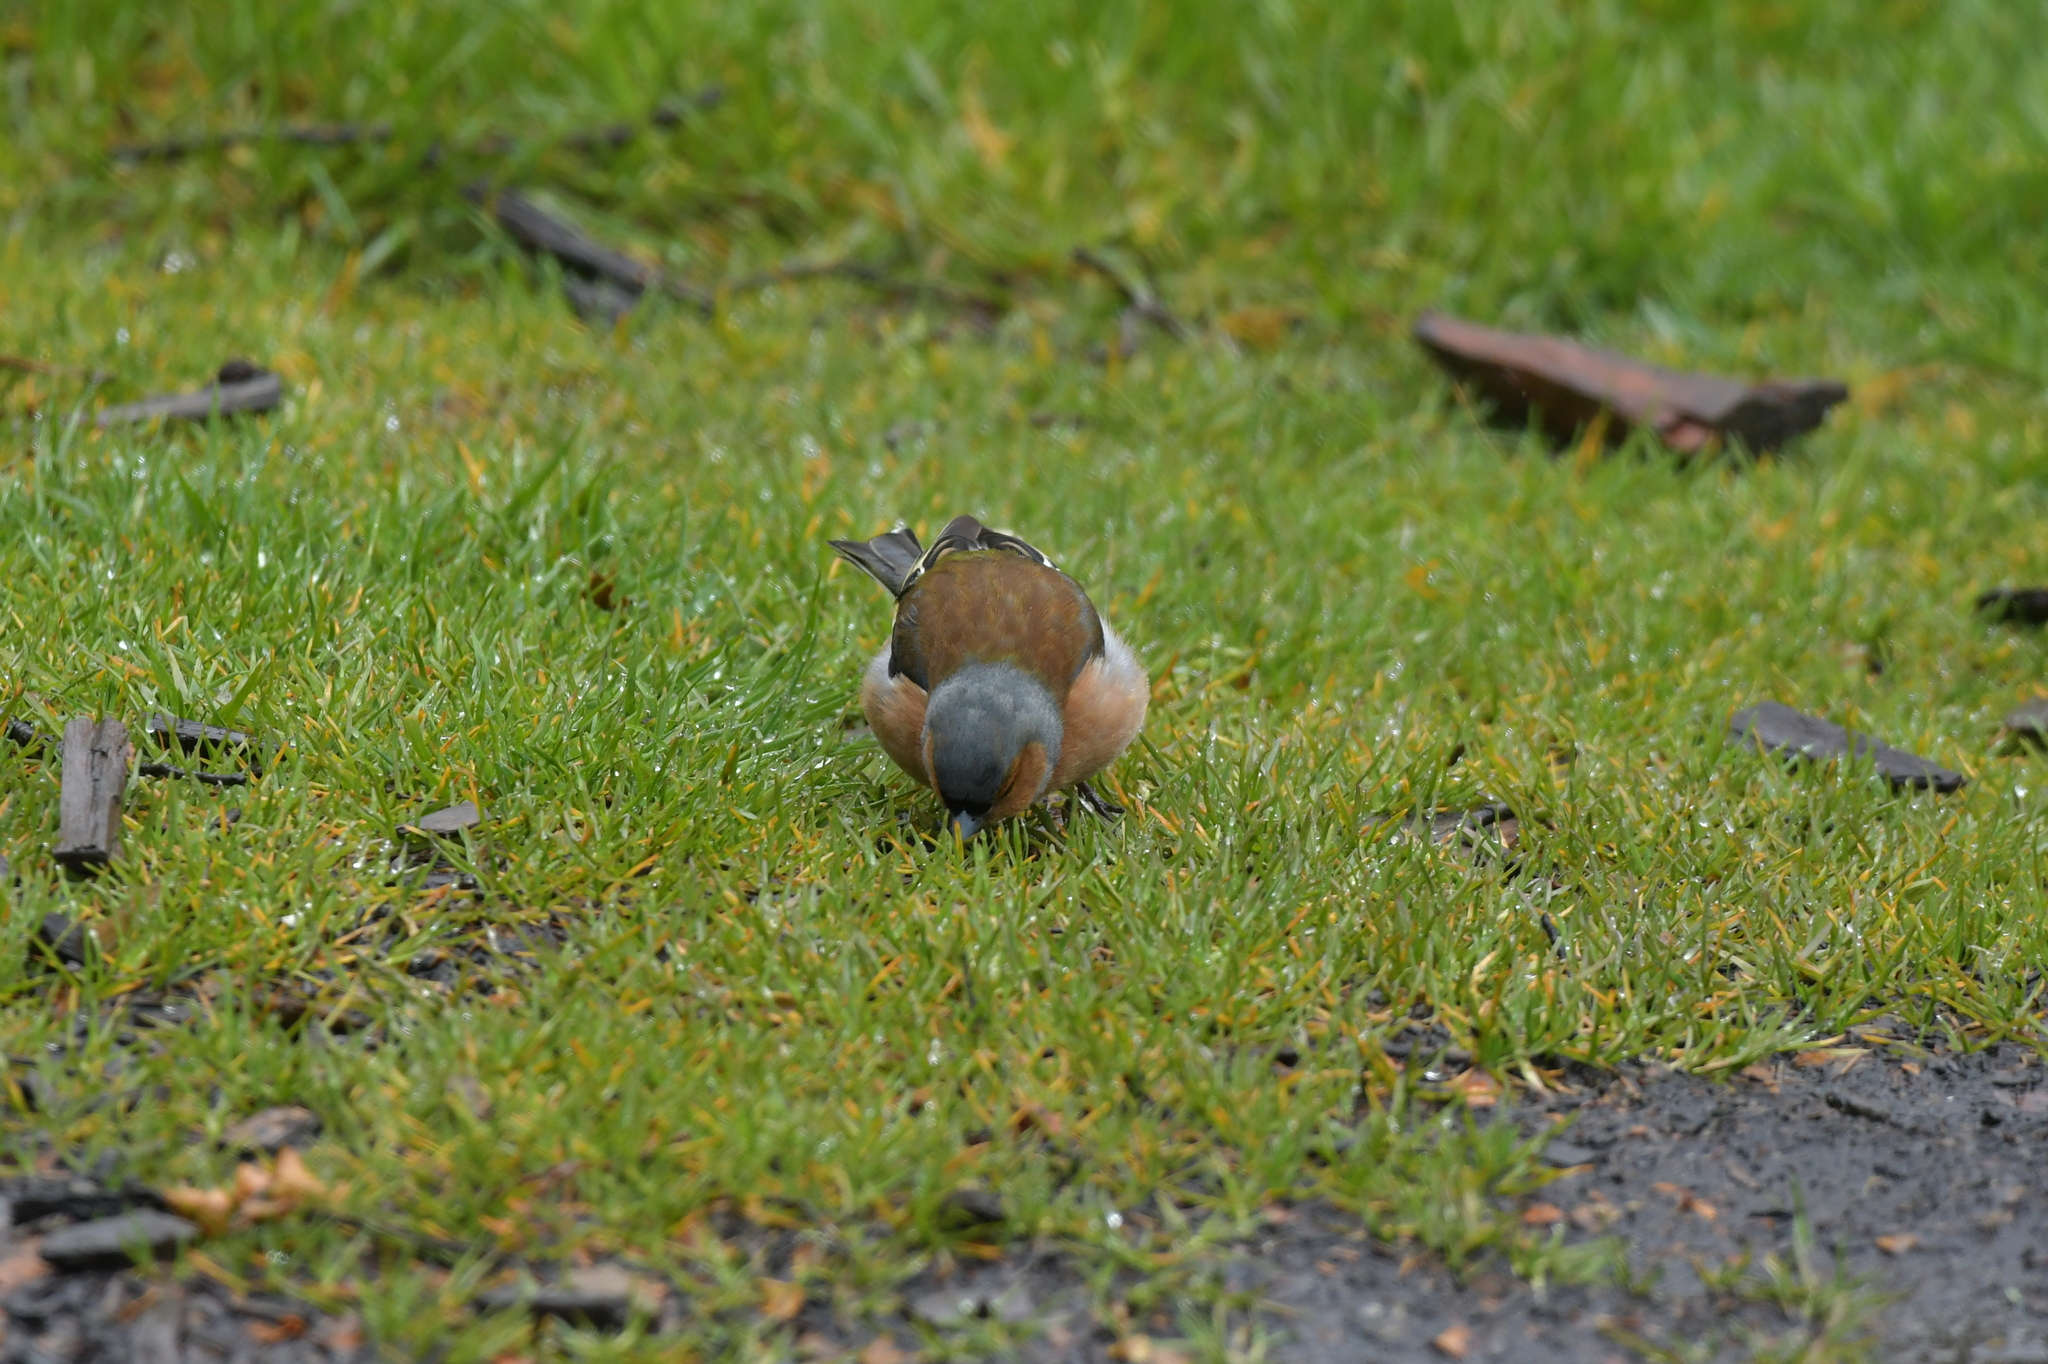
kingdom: Animalia
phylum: Chordata
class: Aves
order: Passeriformes
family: Fringillidae
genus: Fringilla
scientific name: Fringilla coelebs
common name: Common chaffinch
